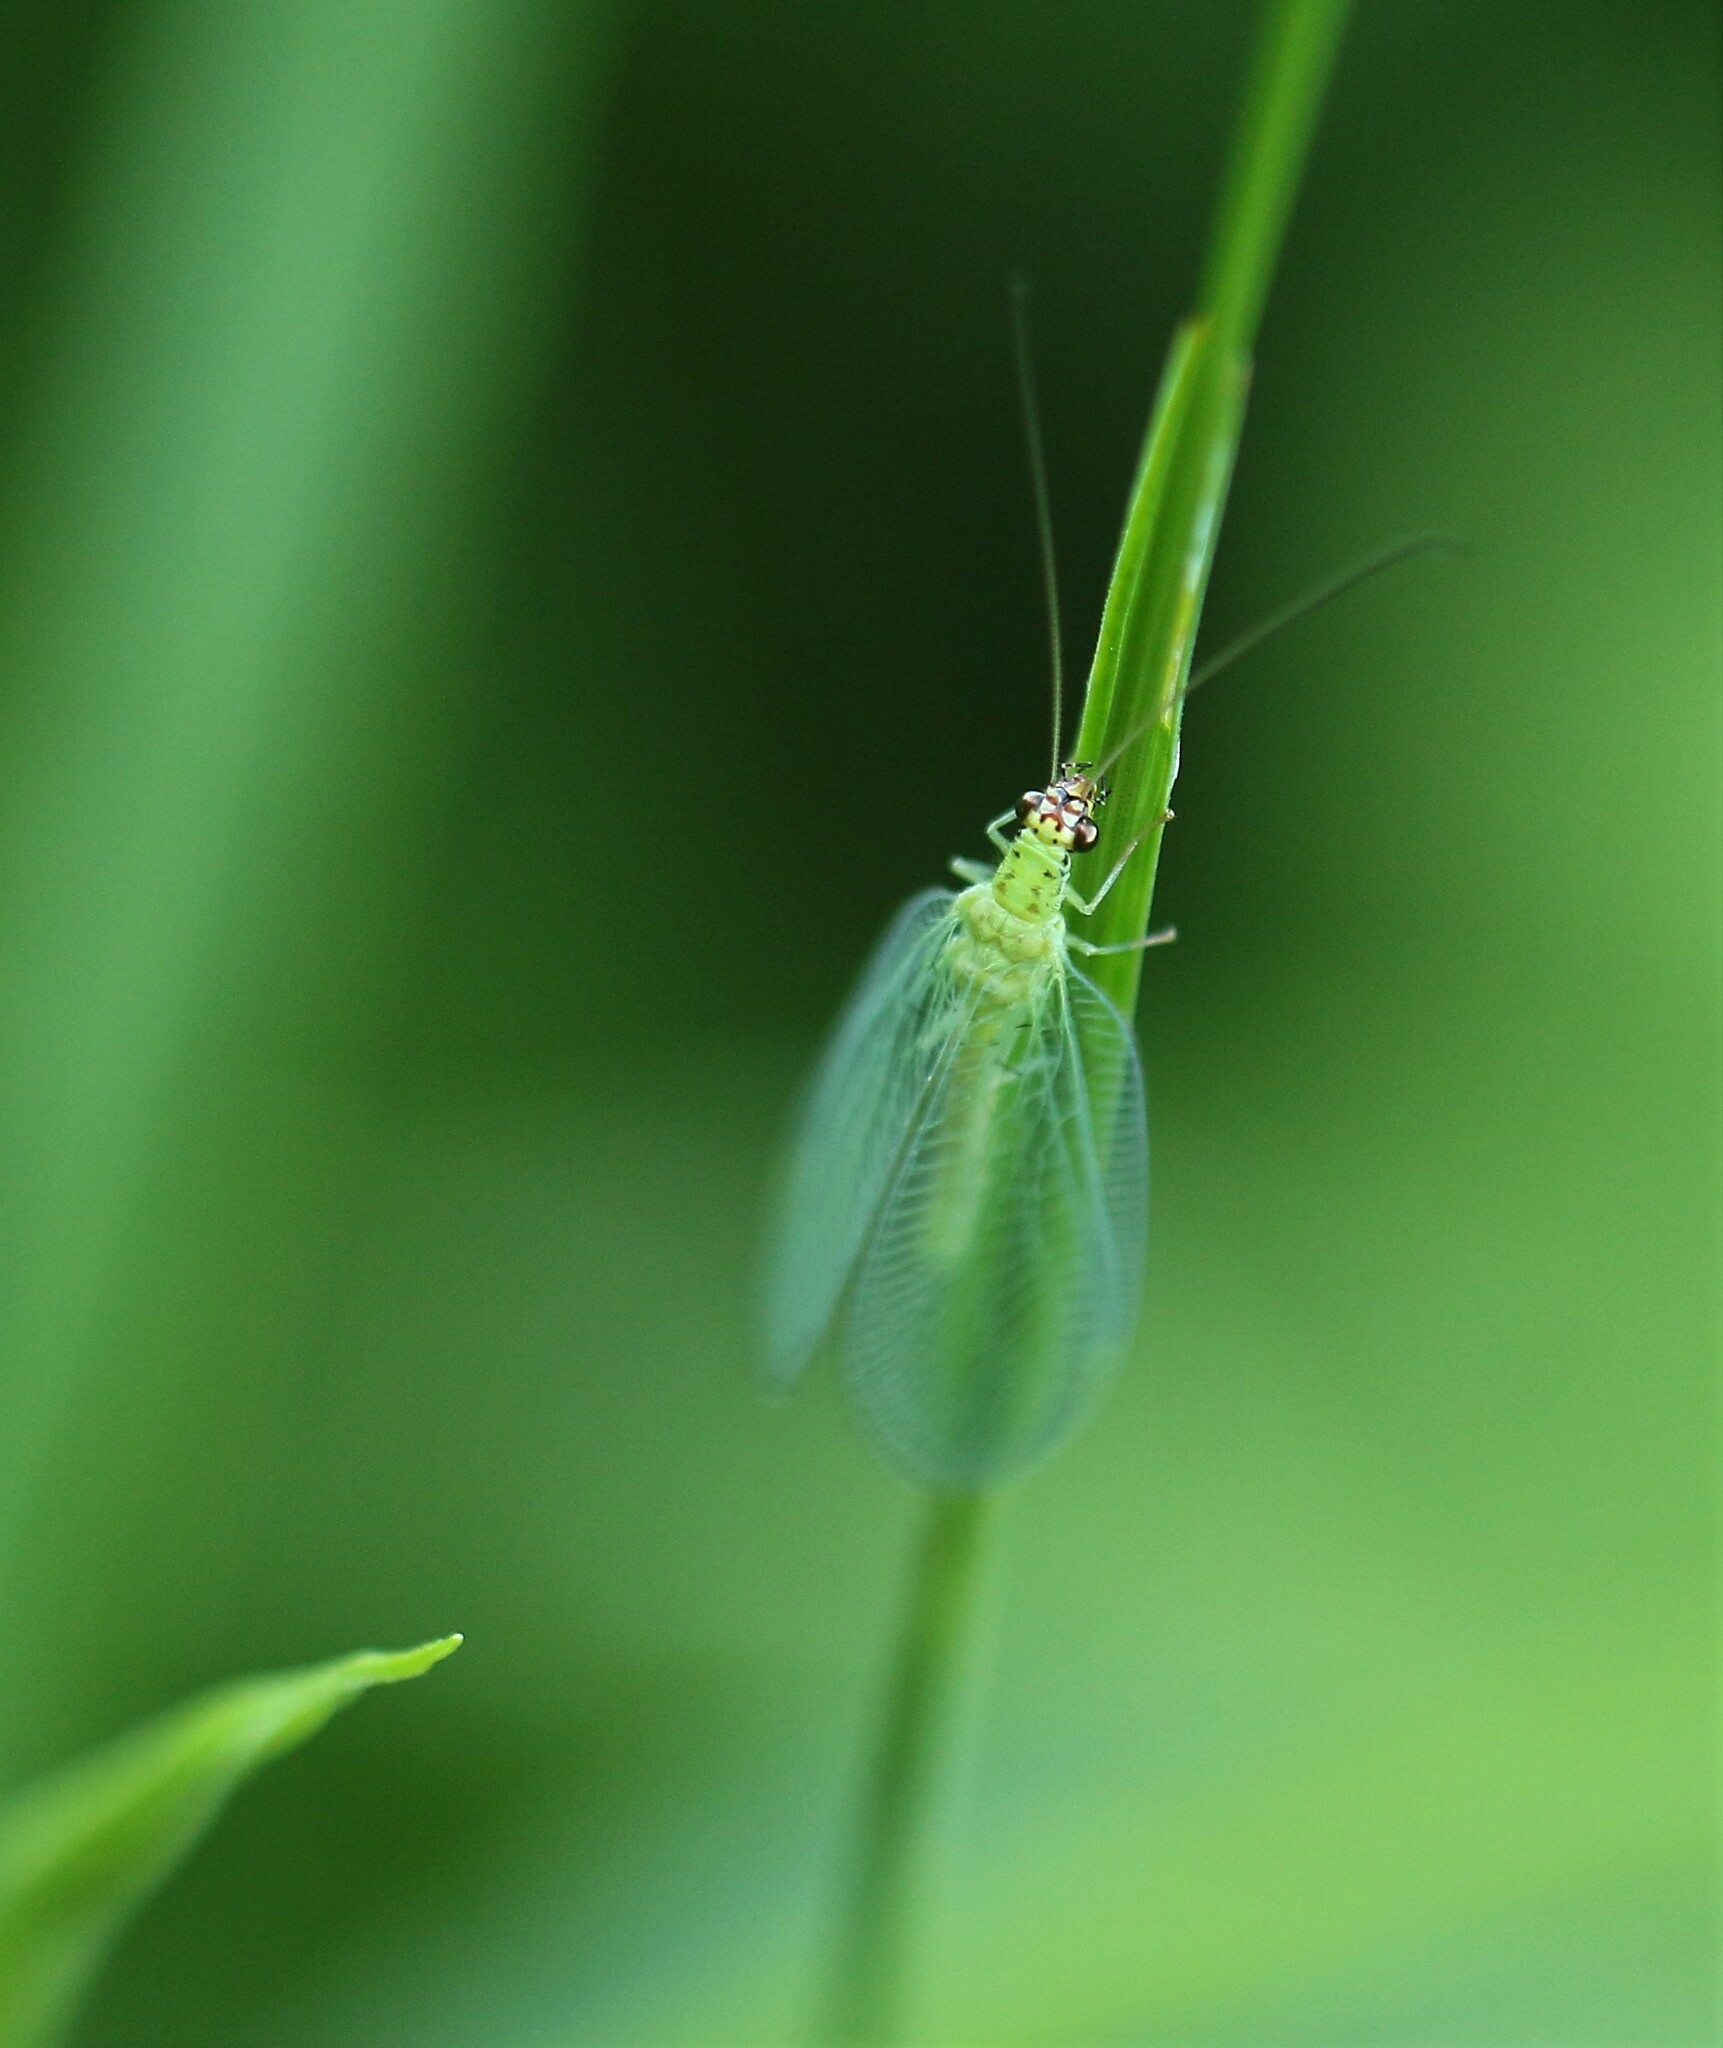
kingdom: Animalia
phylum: Arthropoda
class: Insecta
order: Neuroptera
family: Chrysopidae
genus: Chrysopa
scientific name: Chrysopa oculata
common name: Golden-eyed lacewing
